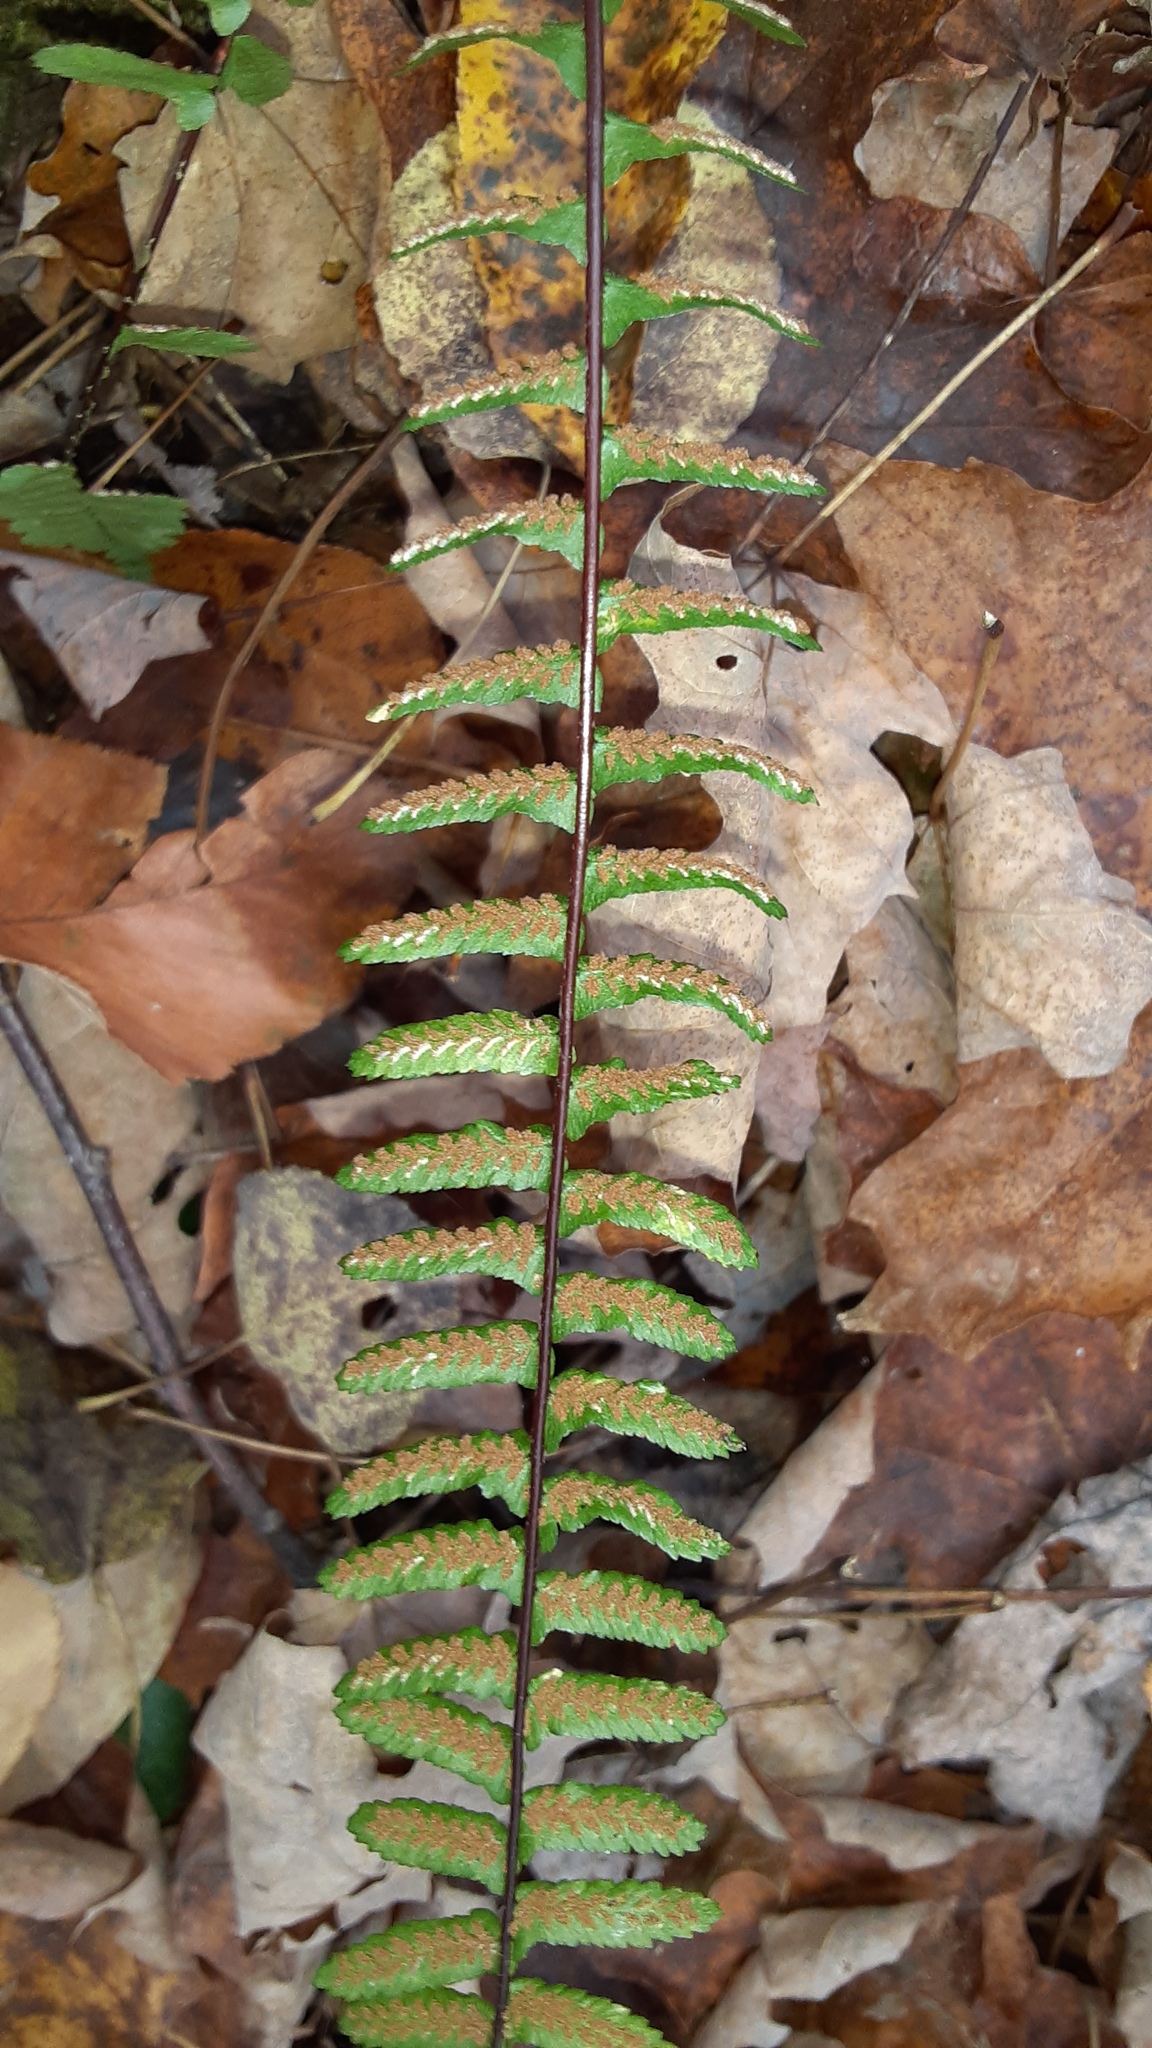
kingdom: Plantae
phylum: Tracheophyta
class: Polypodiopsida
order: Polypodiales
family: Aspleniaceae
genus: Asplenium
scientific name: Asplenium platyneuron
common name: Ebony spleenwort
